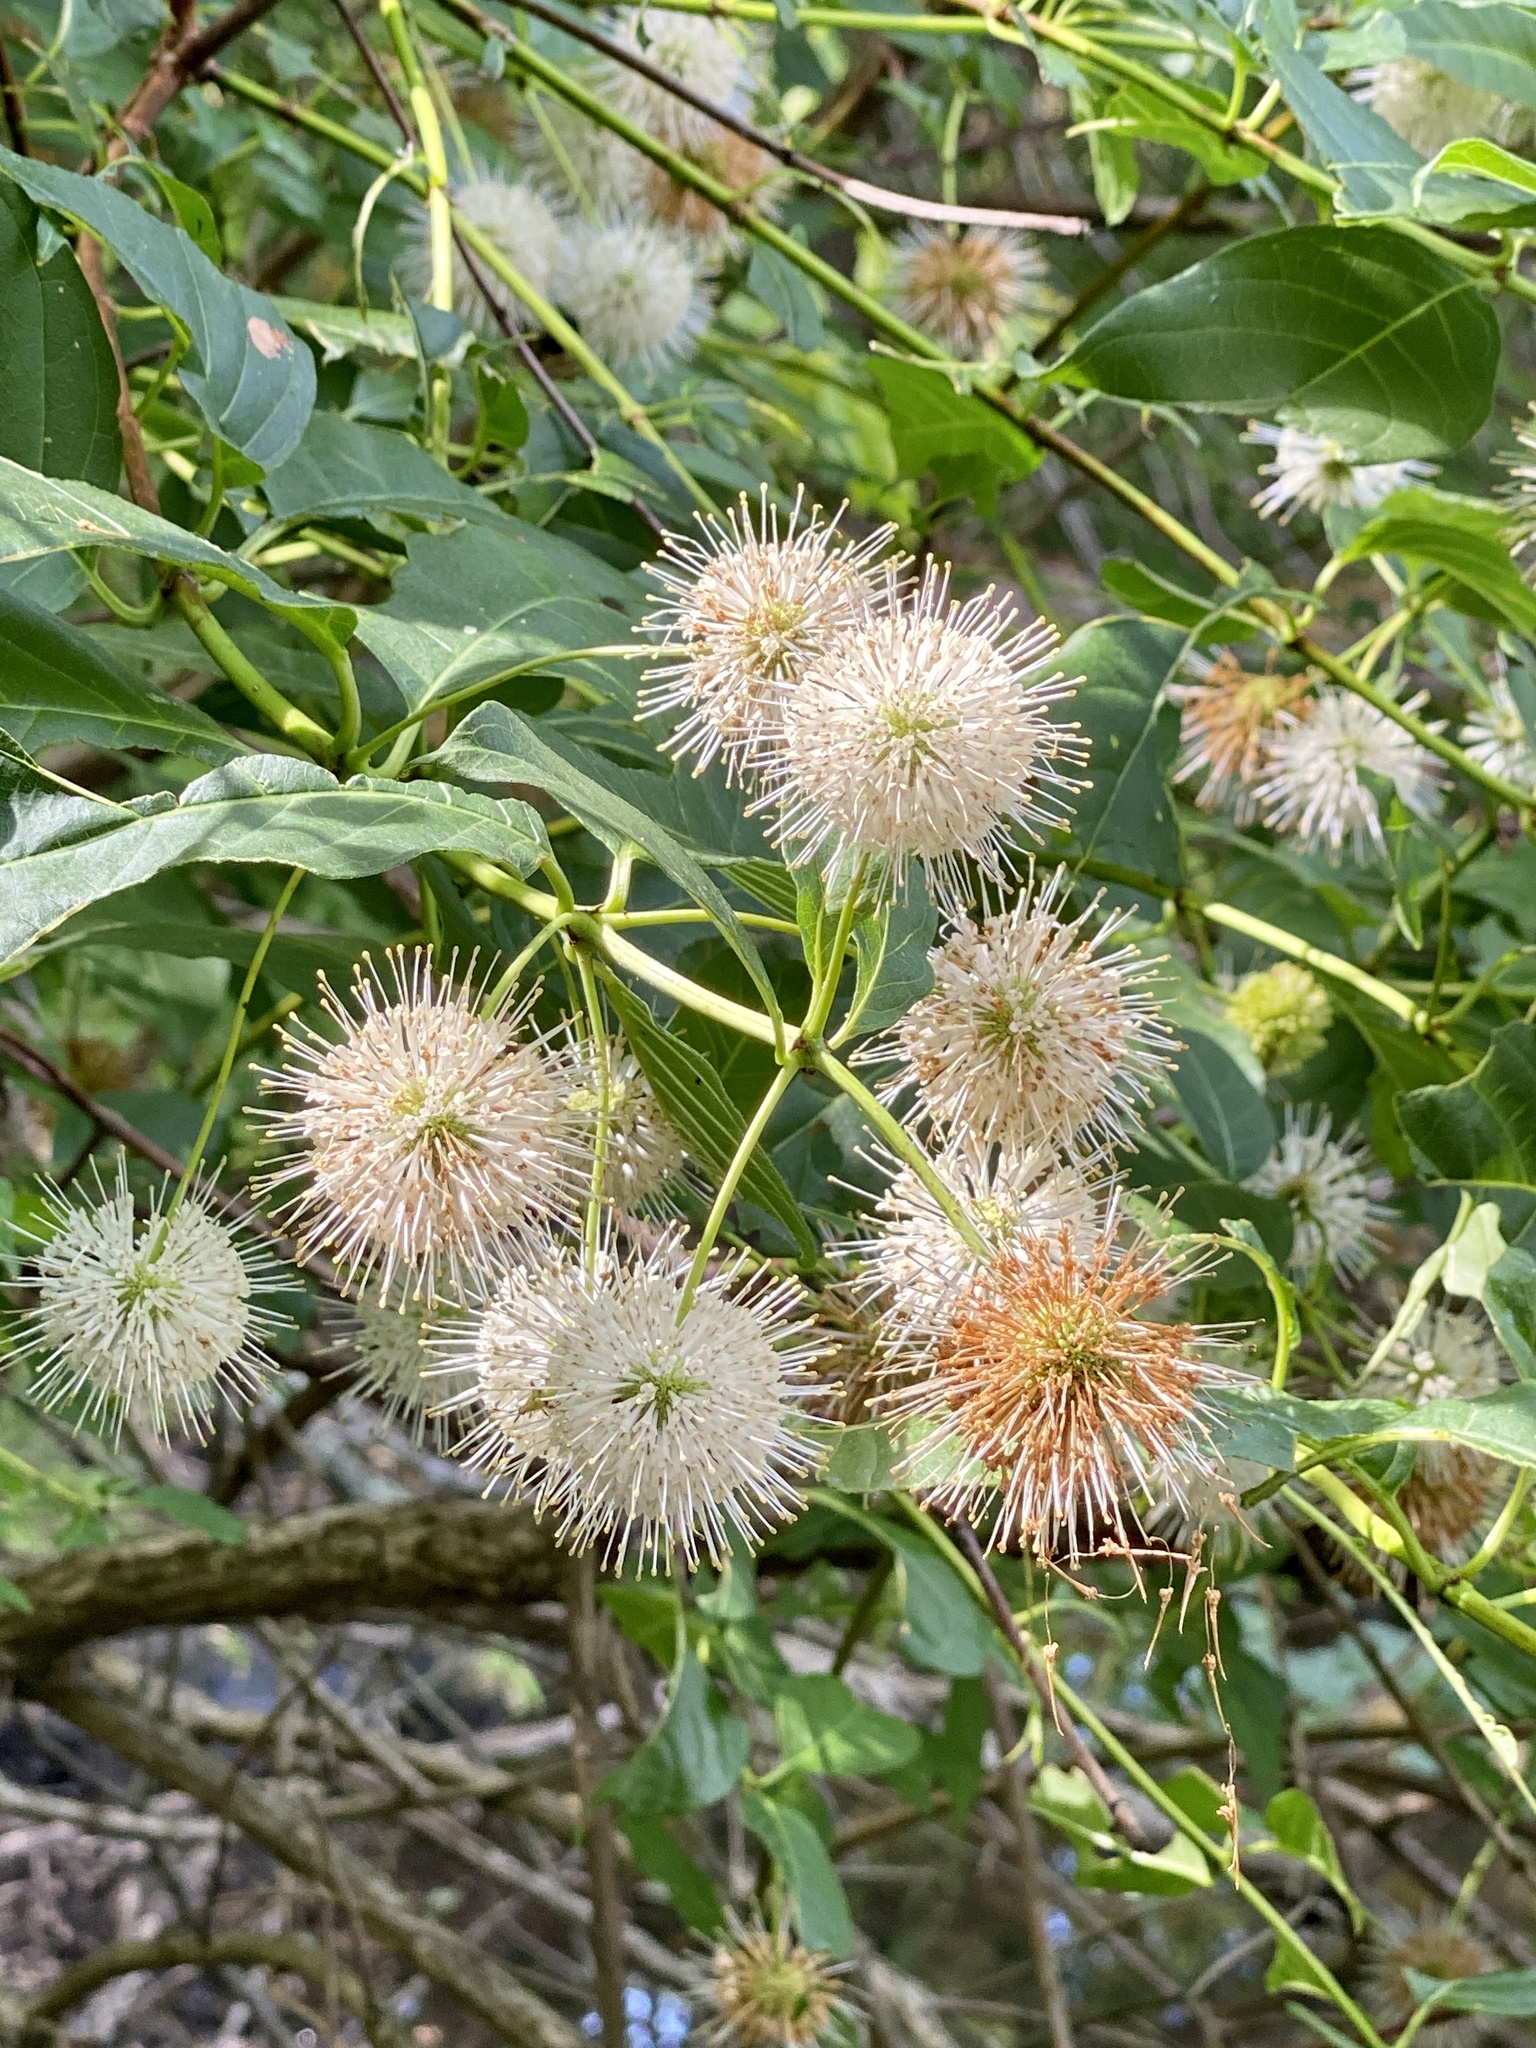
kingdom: Plantae
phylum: Tracheophyta
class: Magnoliopsida
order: Gentianales
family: Rubiaceae
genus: Cephalanthus
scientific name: Cephalanthus occidentalis
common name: Button-willow
